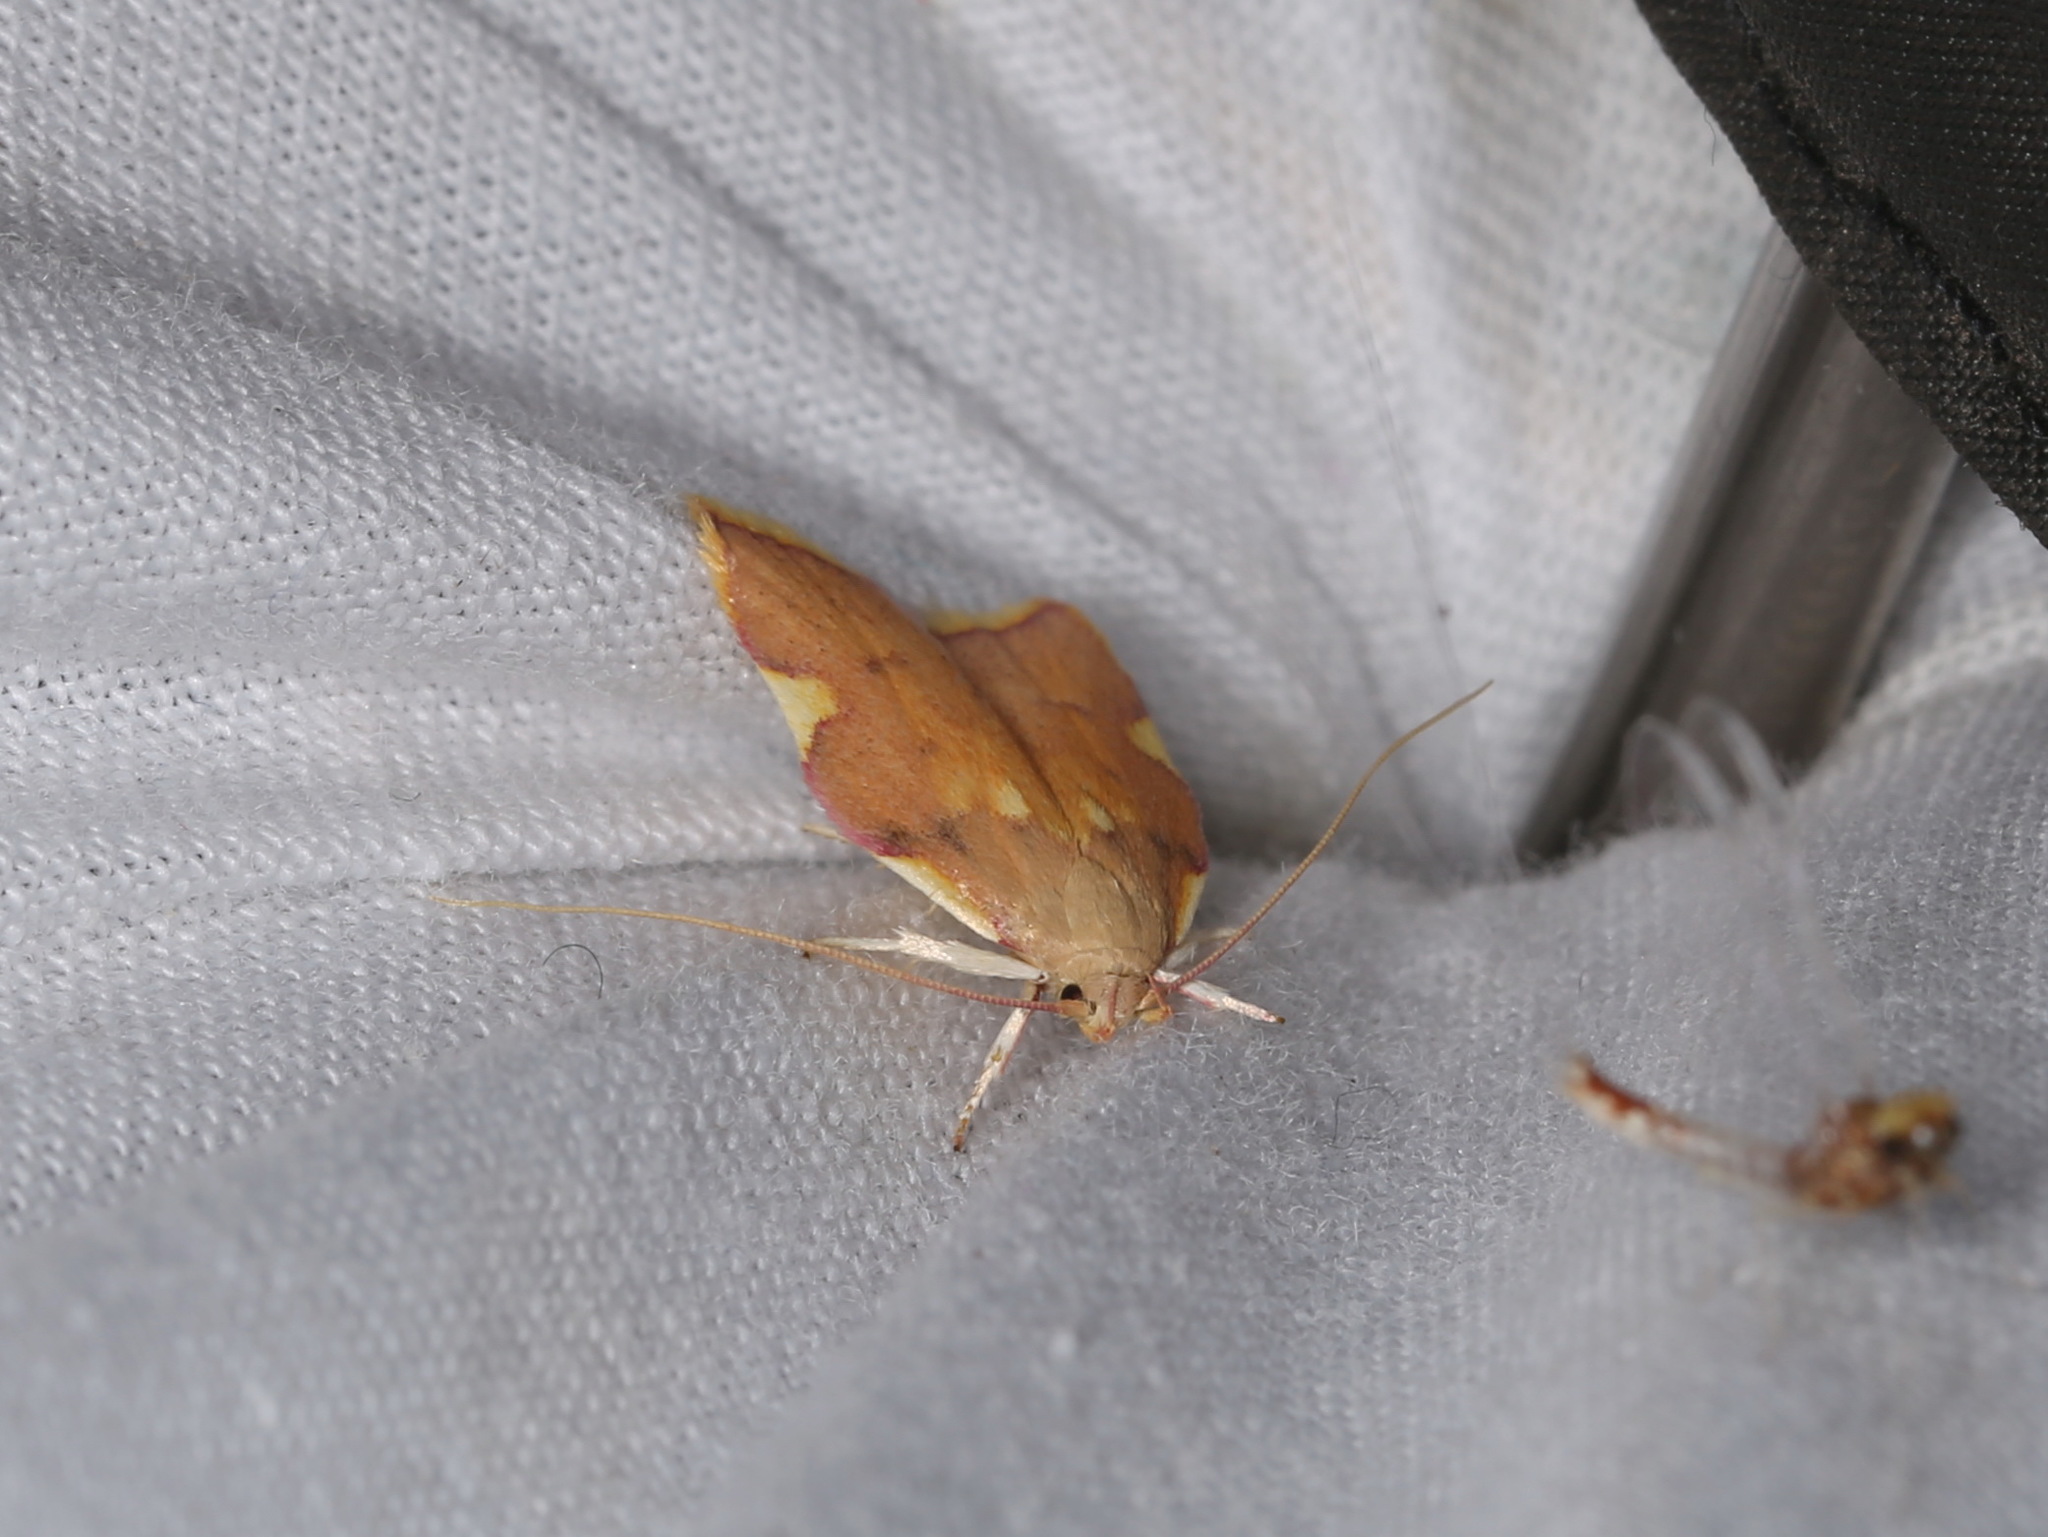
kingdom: Animalia
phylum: Arthropoda
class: Insecta
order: Lepidoptera
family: Peleopodidae
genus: Carcina
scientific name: Carcina quercana
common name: Moth
